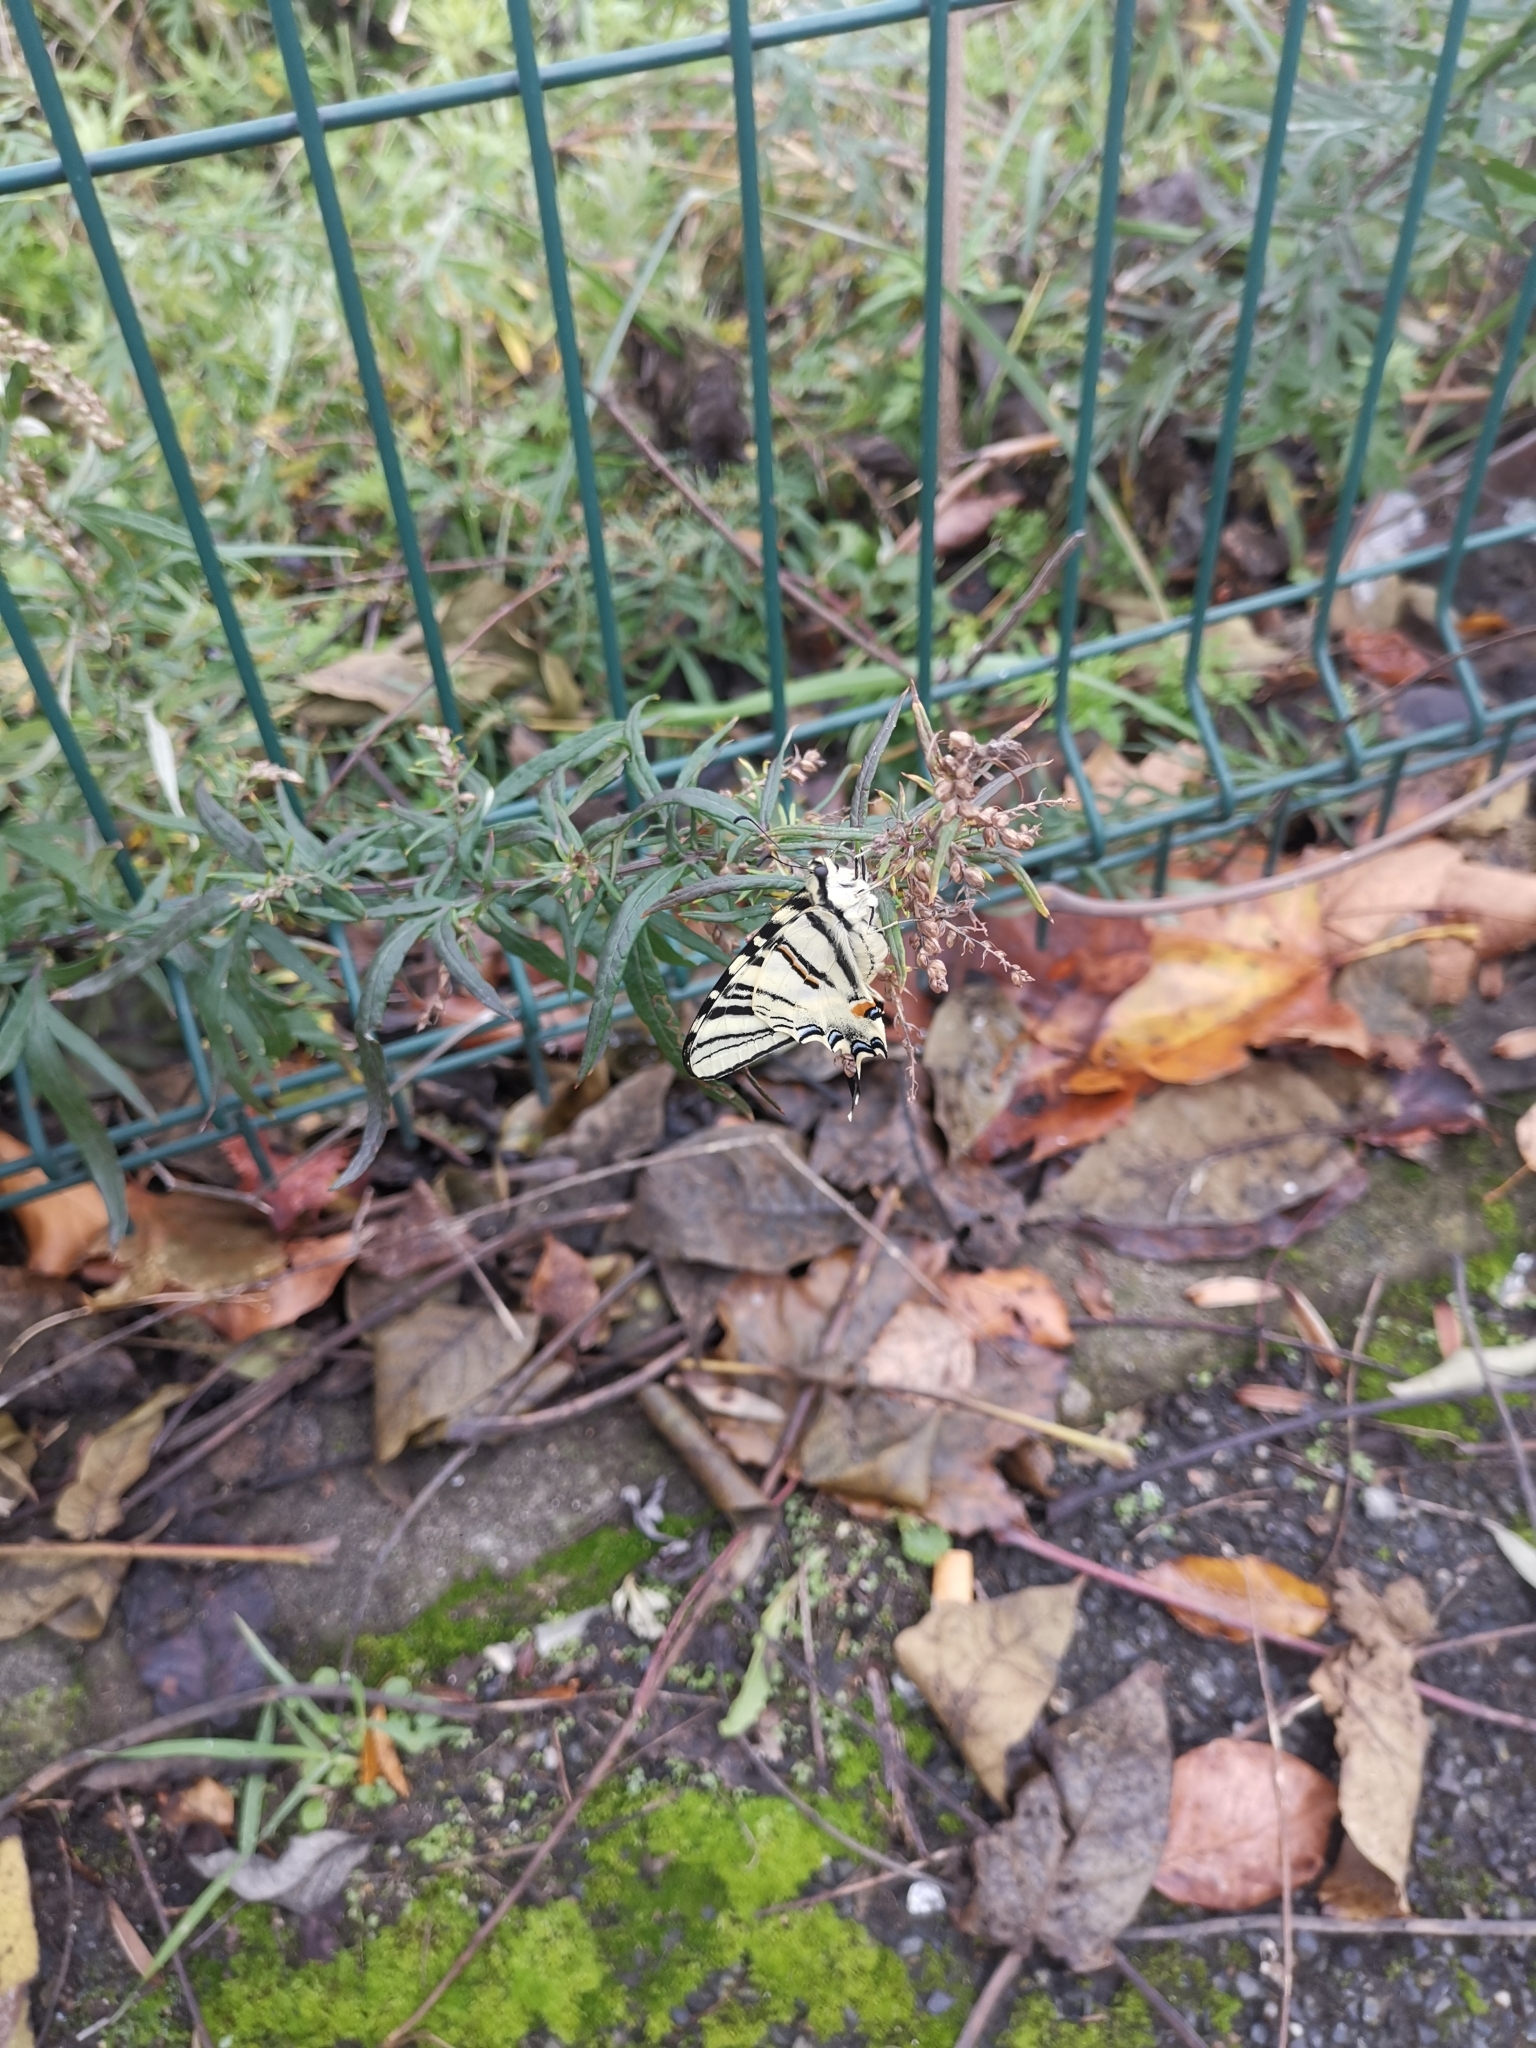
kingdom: Animalia
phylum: Arthropoda
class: Insecta
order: Lepidoptera
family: Papilionidae
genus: Iphiclides
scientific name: Iphiclides podalirius
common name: Scarce swallowtail
